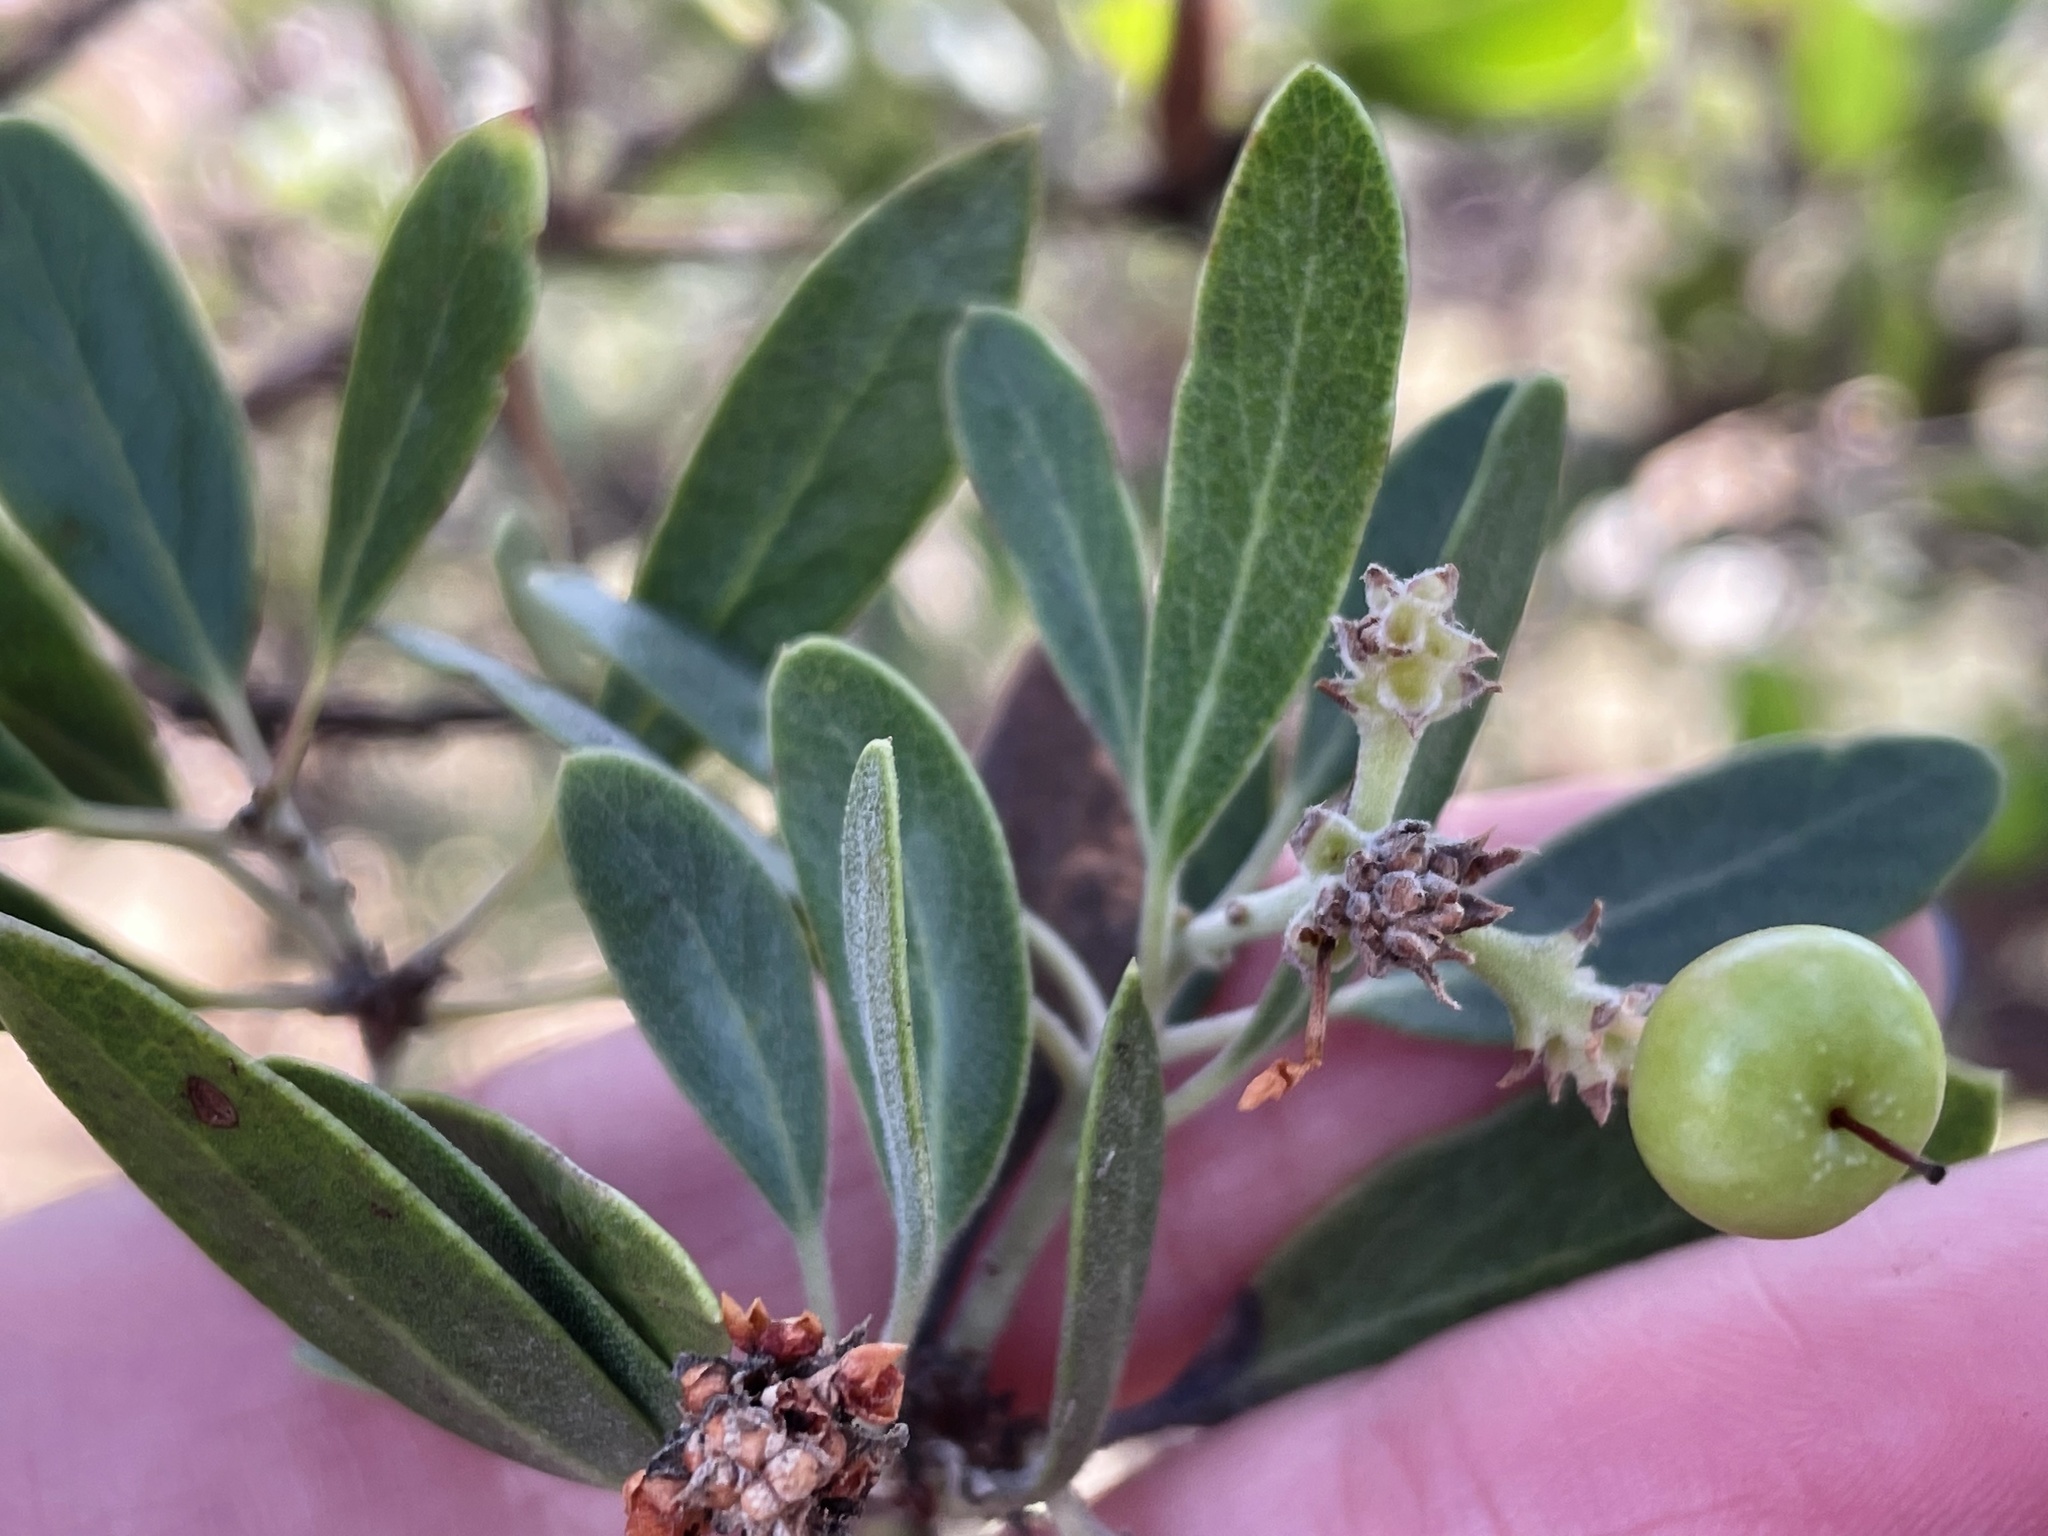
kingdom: Plantae
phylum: Tracheophyta
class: Magnoliopsida
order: Ericales
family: Ericaceae
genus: Arctostaphylos
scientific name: Arctostaphylos pungens
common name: Mexican manzanita
